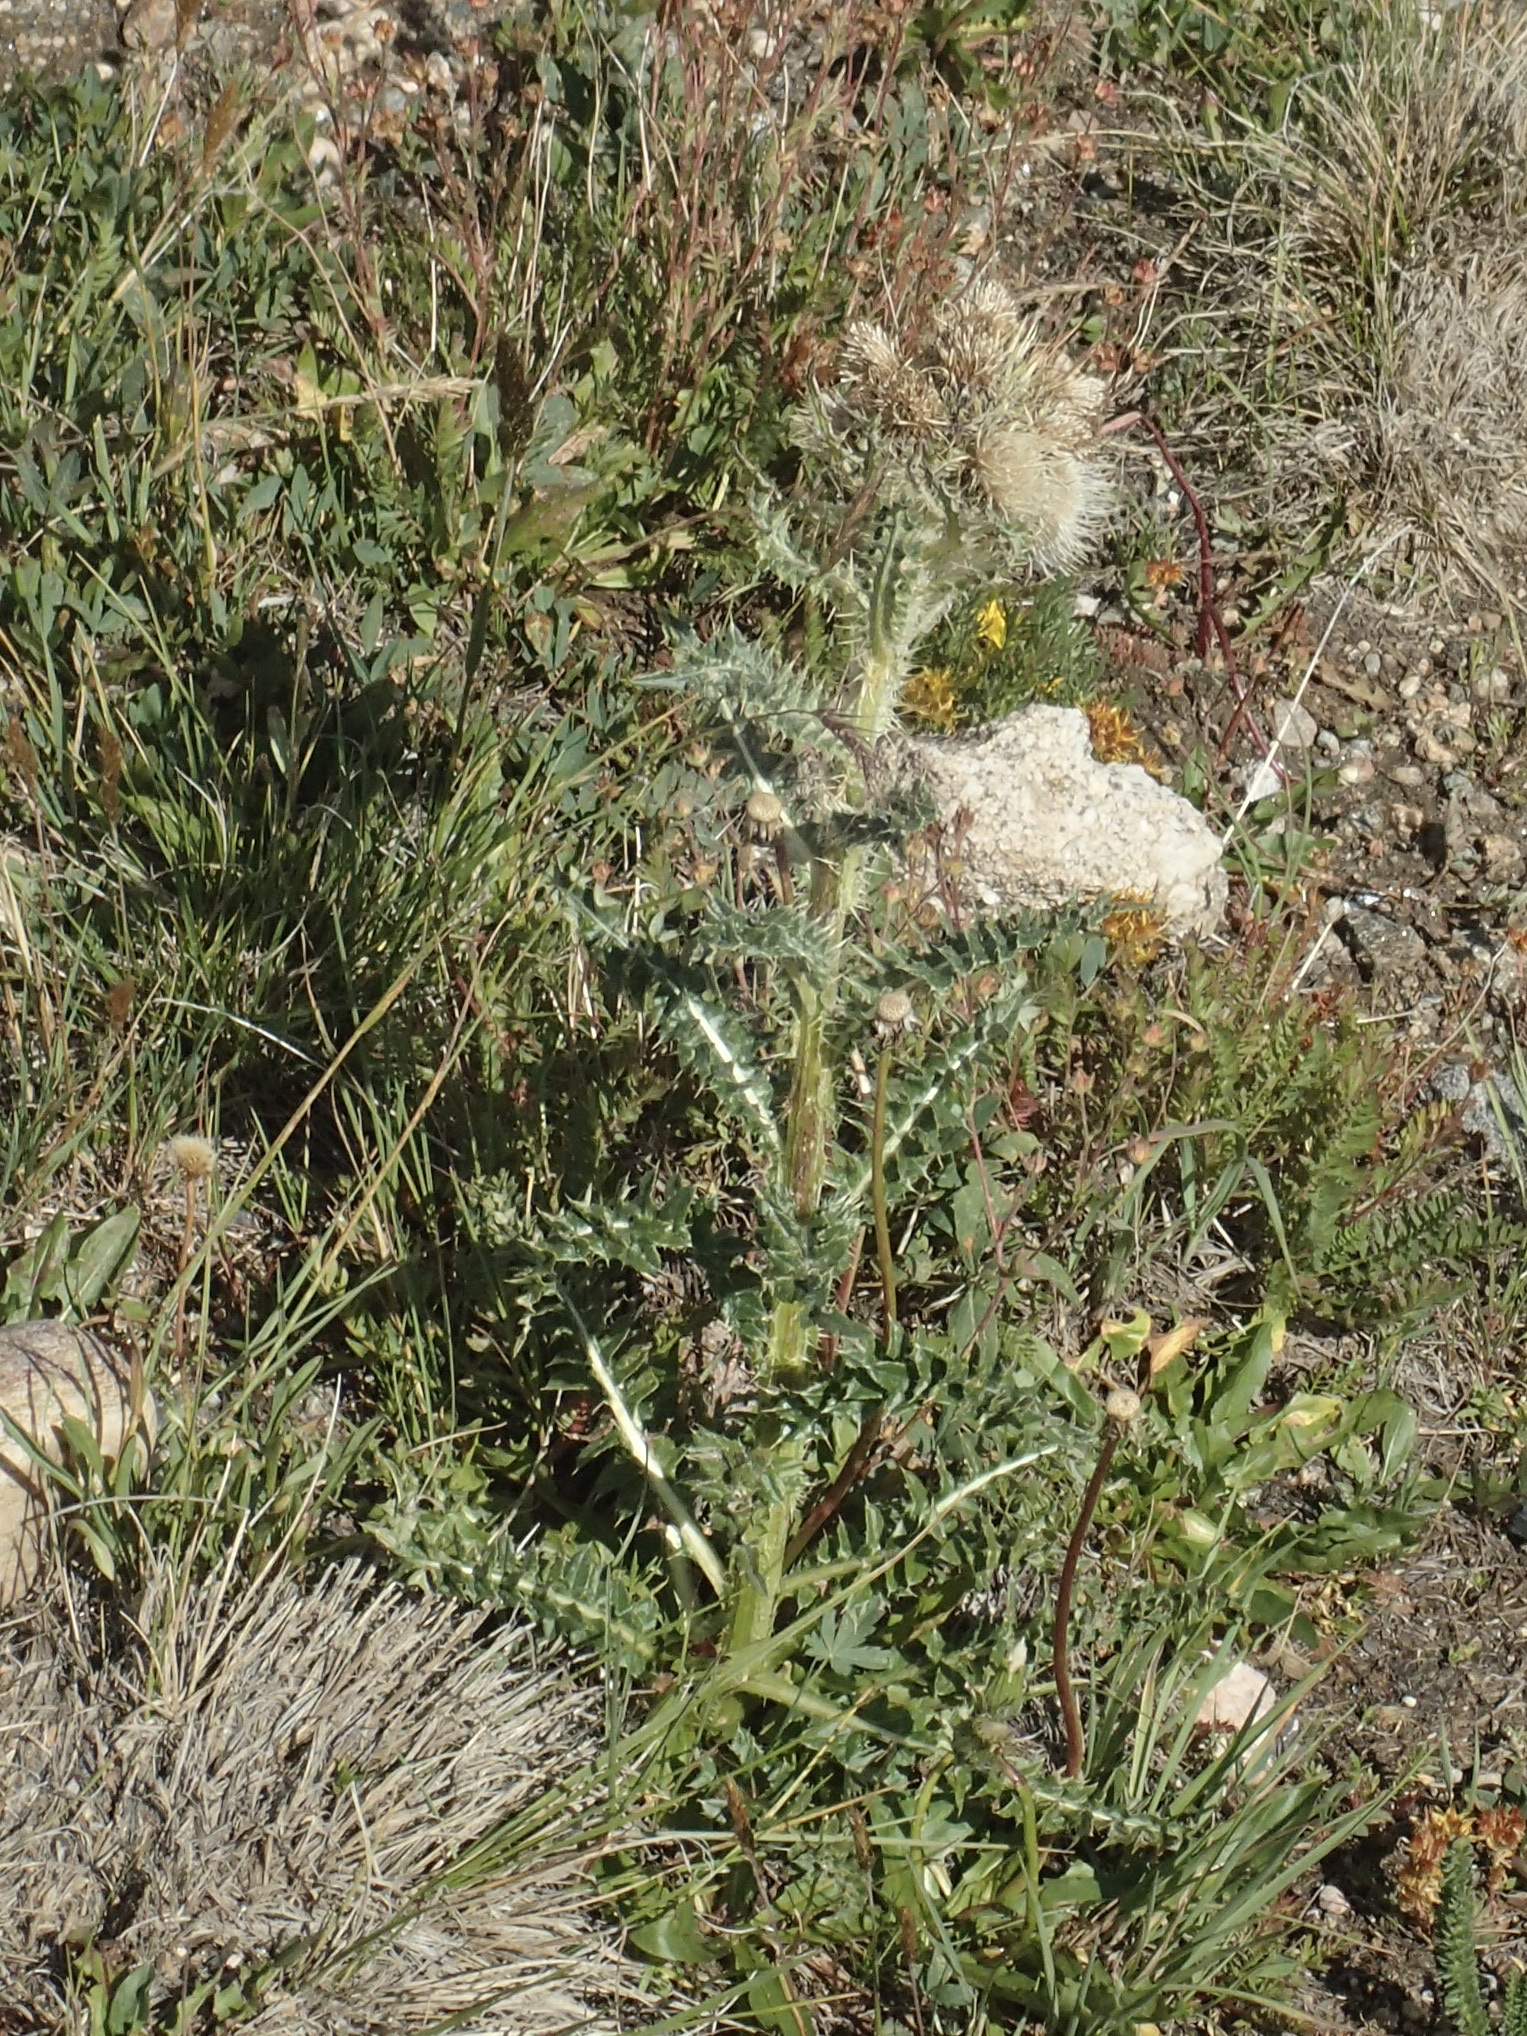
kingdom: Plantae
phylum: Tracheophyta
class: Magnoliopsida
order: Asterales
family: Asteraceae
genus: Cirsium
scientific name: Cirsium scopulorum
